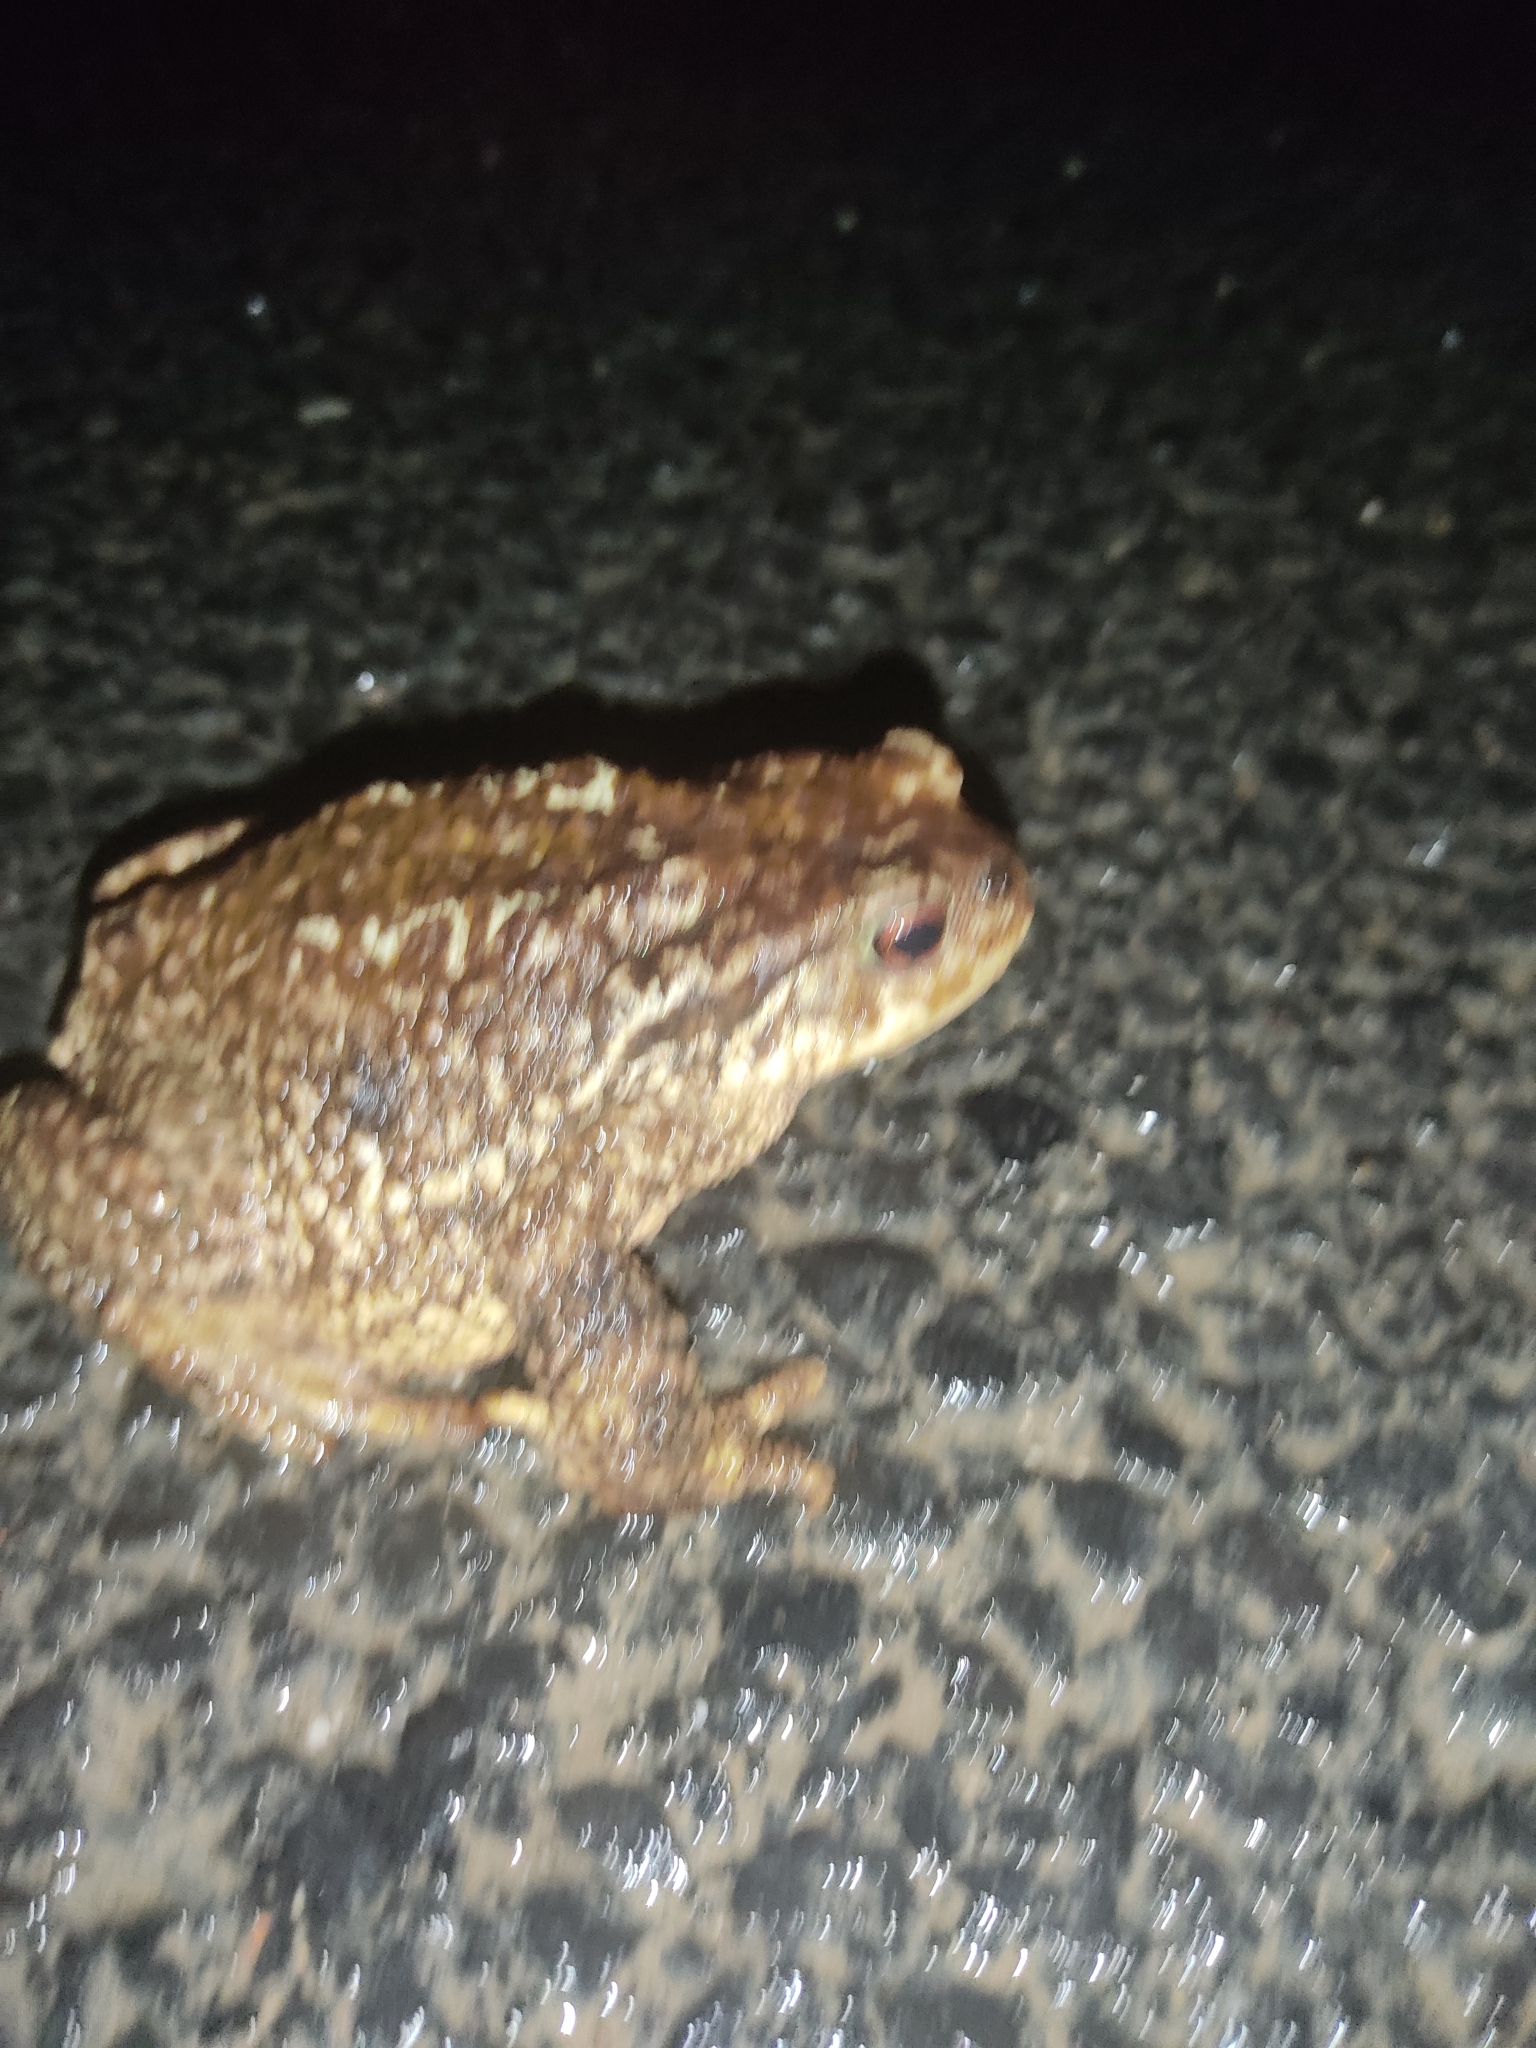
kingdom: Animalia
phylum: Chordata
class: Amphibia
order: Anura
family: Bufonidae
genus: Bufo
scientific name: Bufo spinosus
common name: Western common toad
